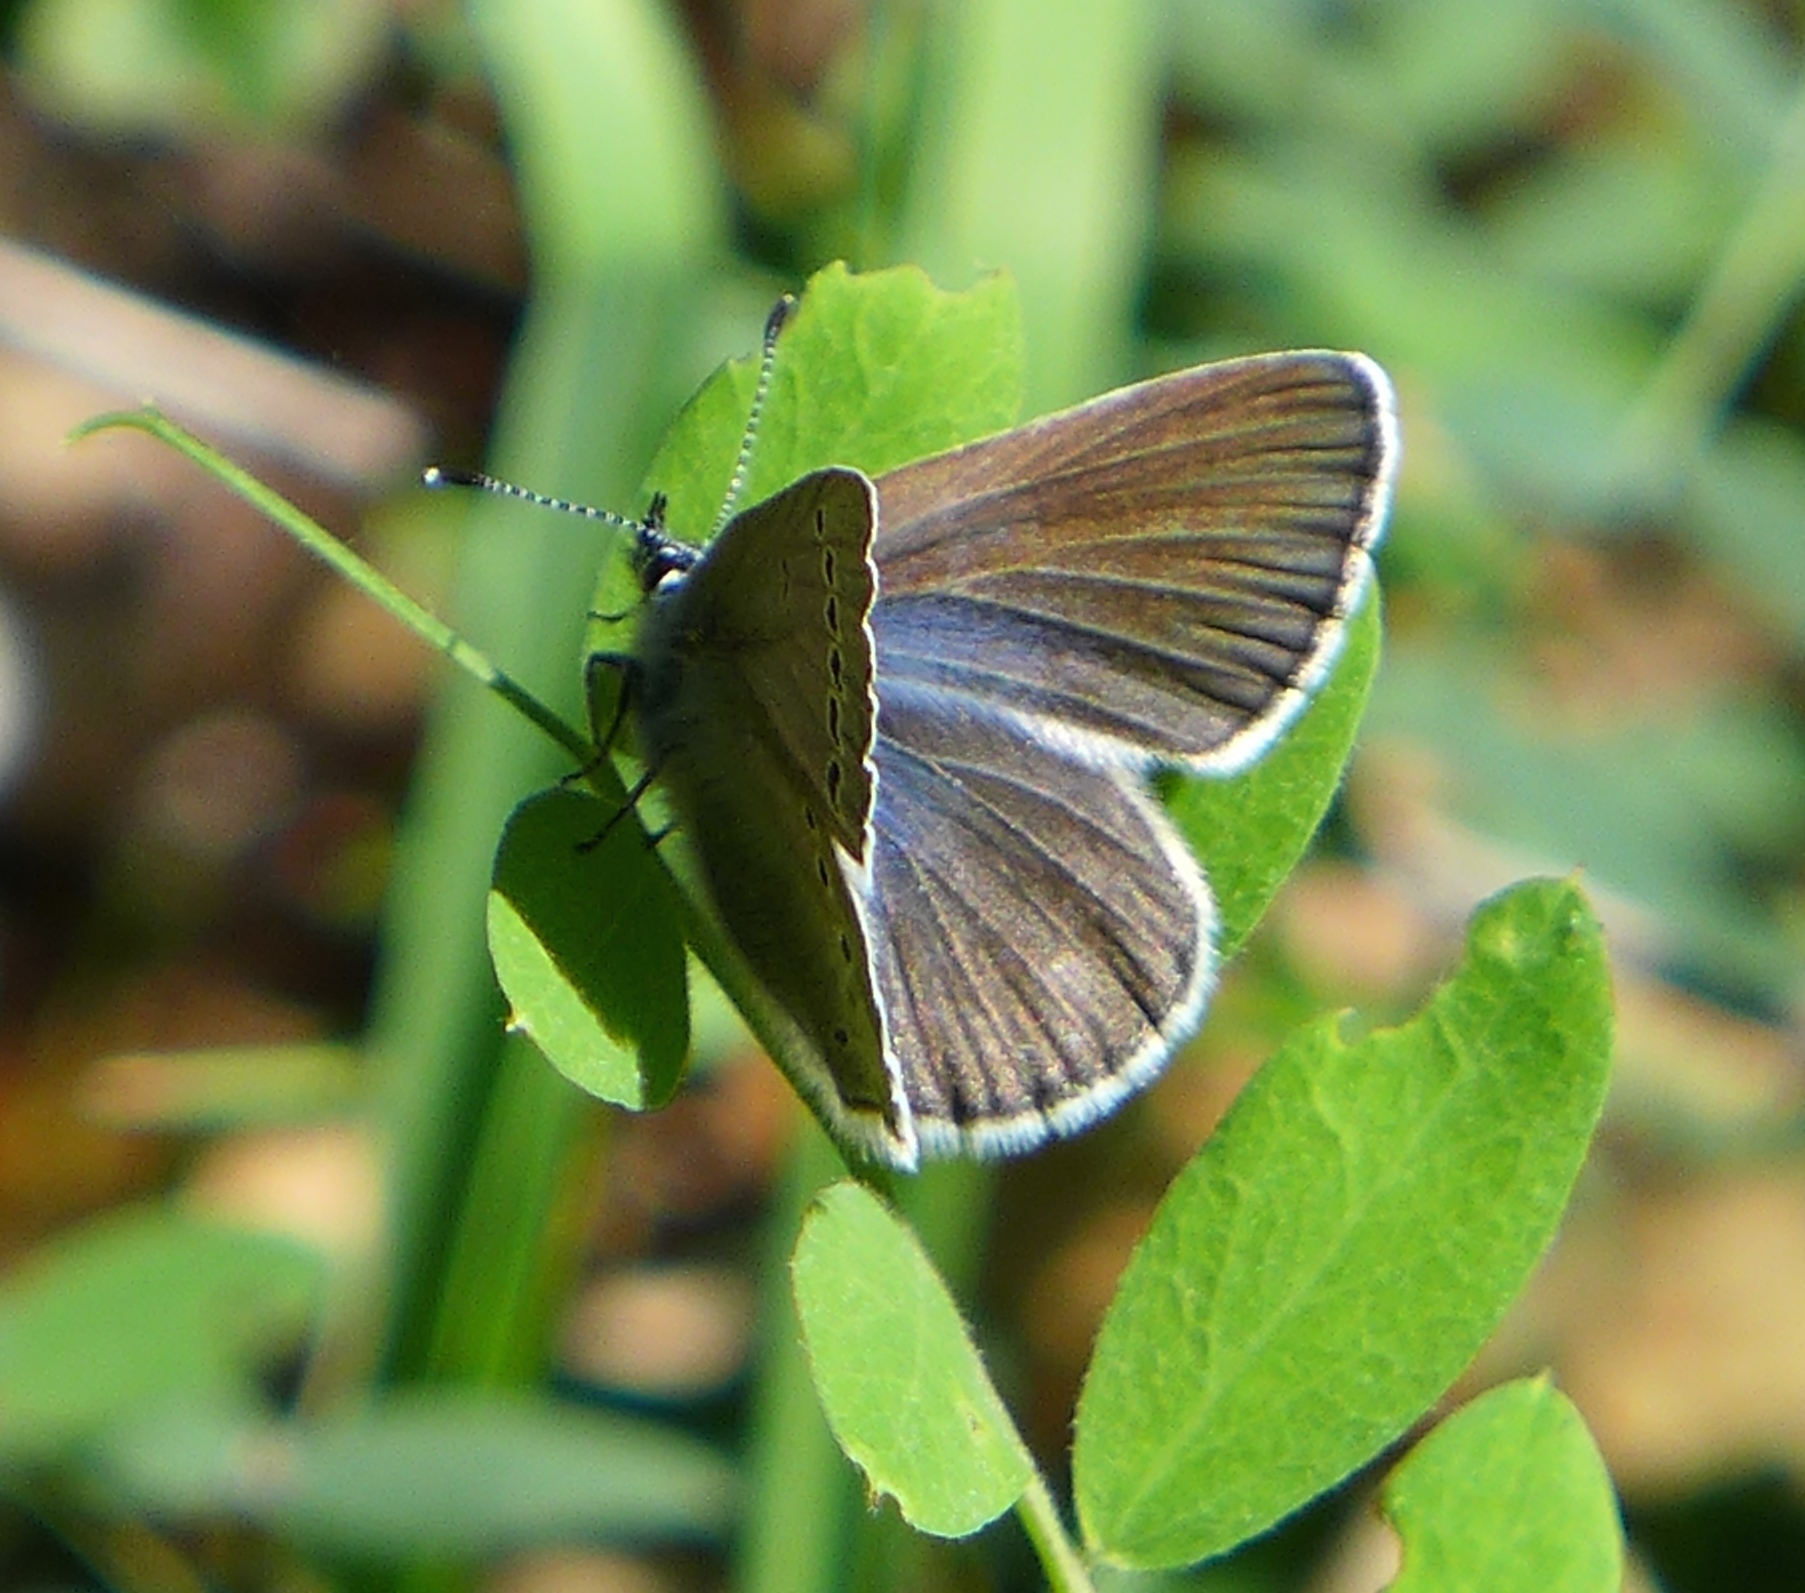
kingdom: Animalia
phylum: Arthropoda
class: Insecta
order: Lepidoptera
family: Lycaenidae
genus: Glaucopsyche
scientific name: Glaucopsyche lygdamus
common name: Silvery blue
